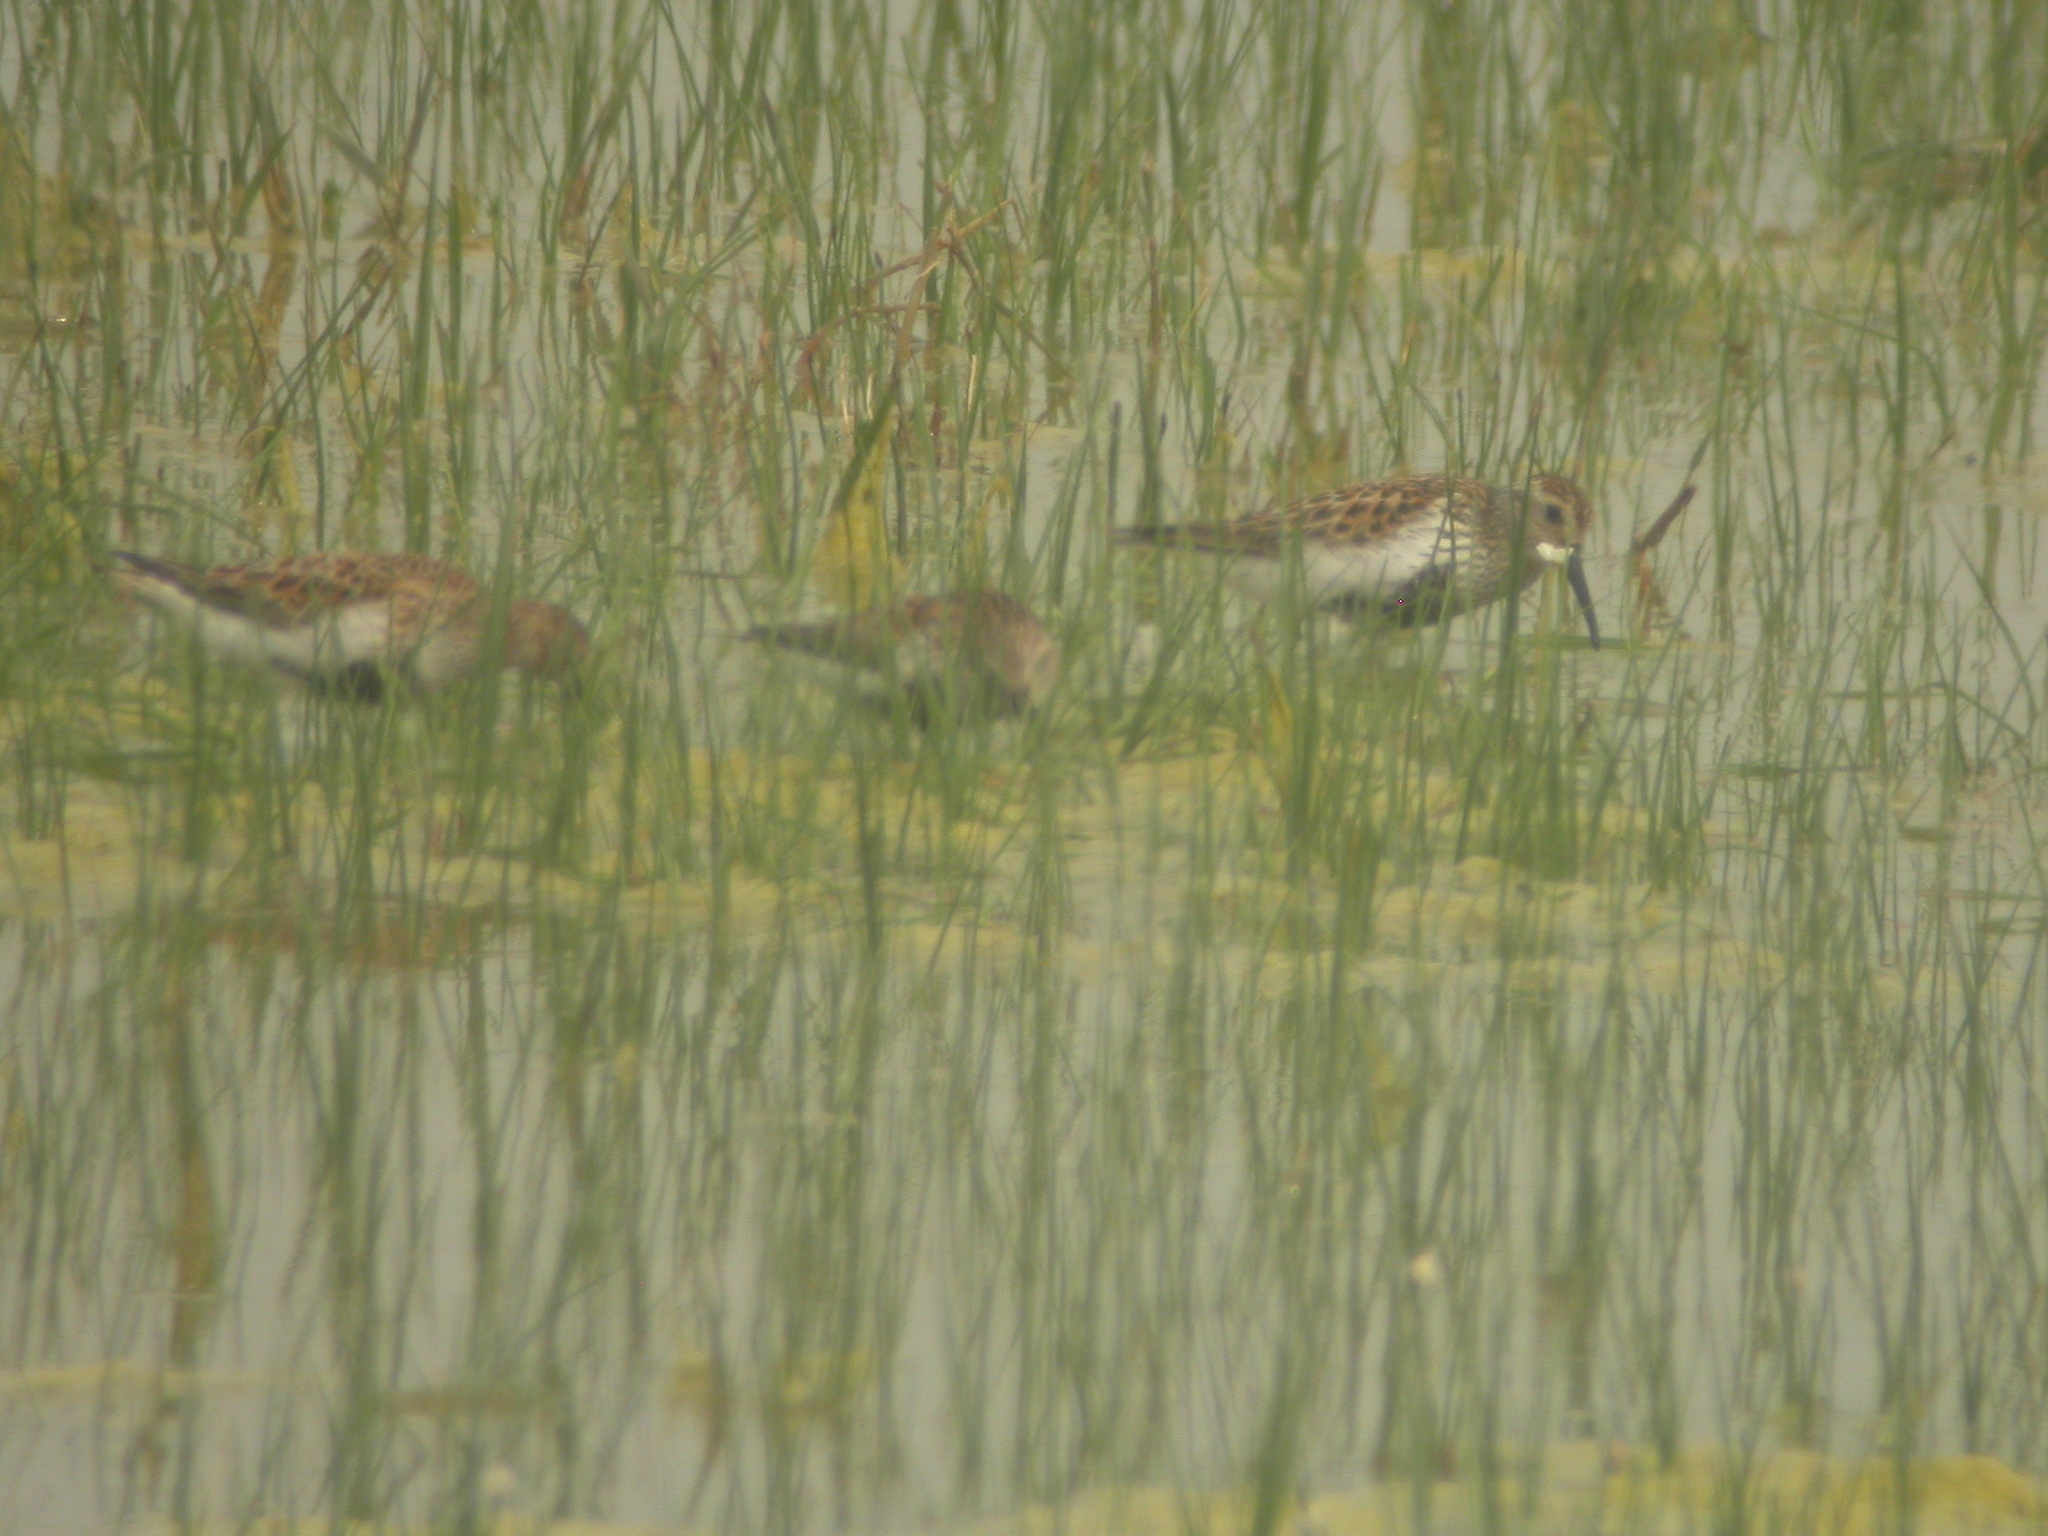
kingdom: Animalia
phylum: Chordata
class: Aves
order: Charadriiformes
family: Scolopacidae
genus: Calidris
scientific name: Calidris alpina
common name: Dunlin
